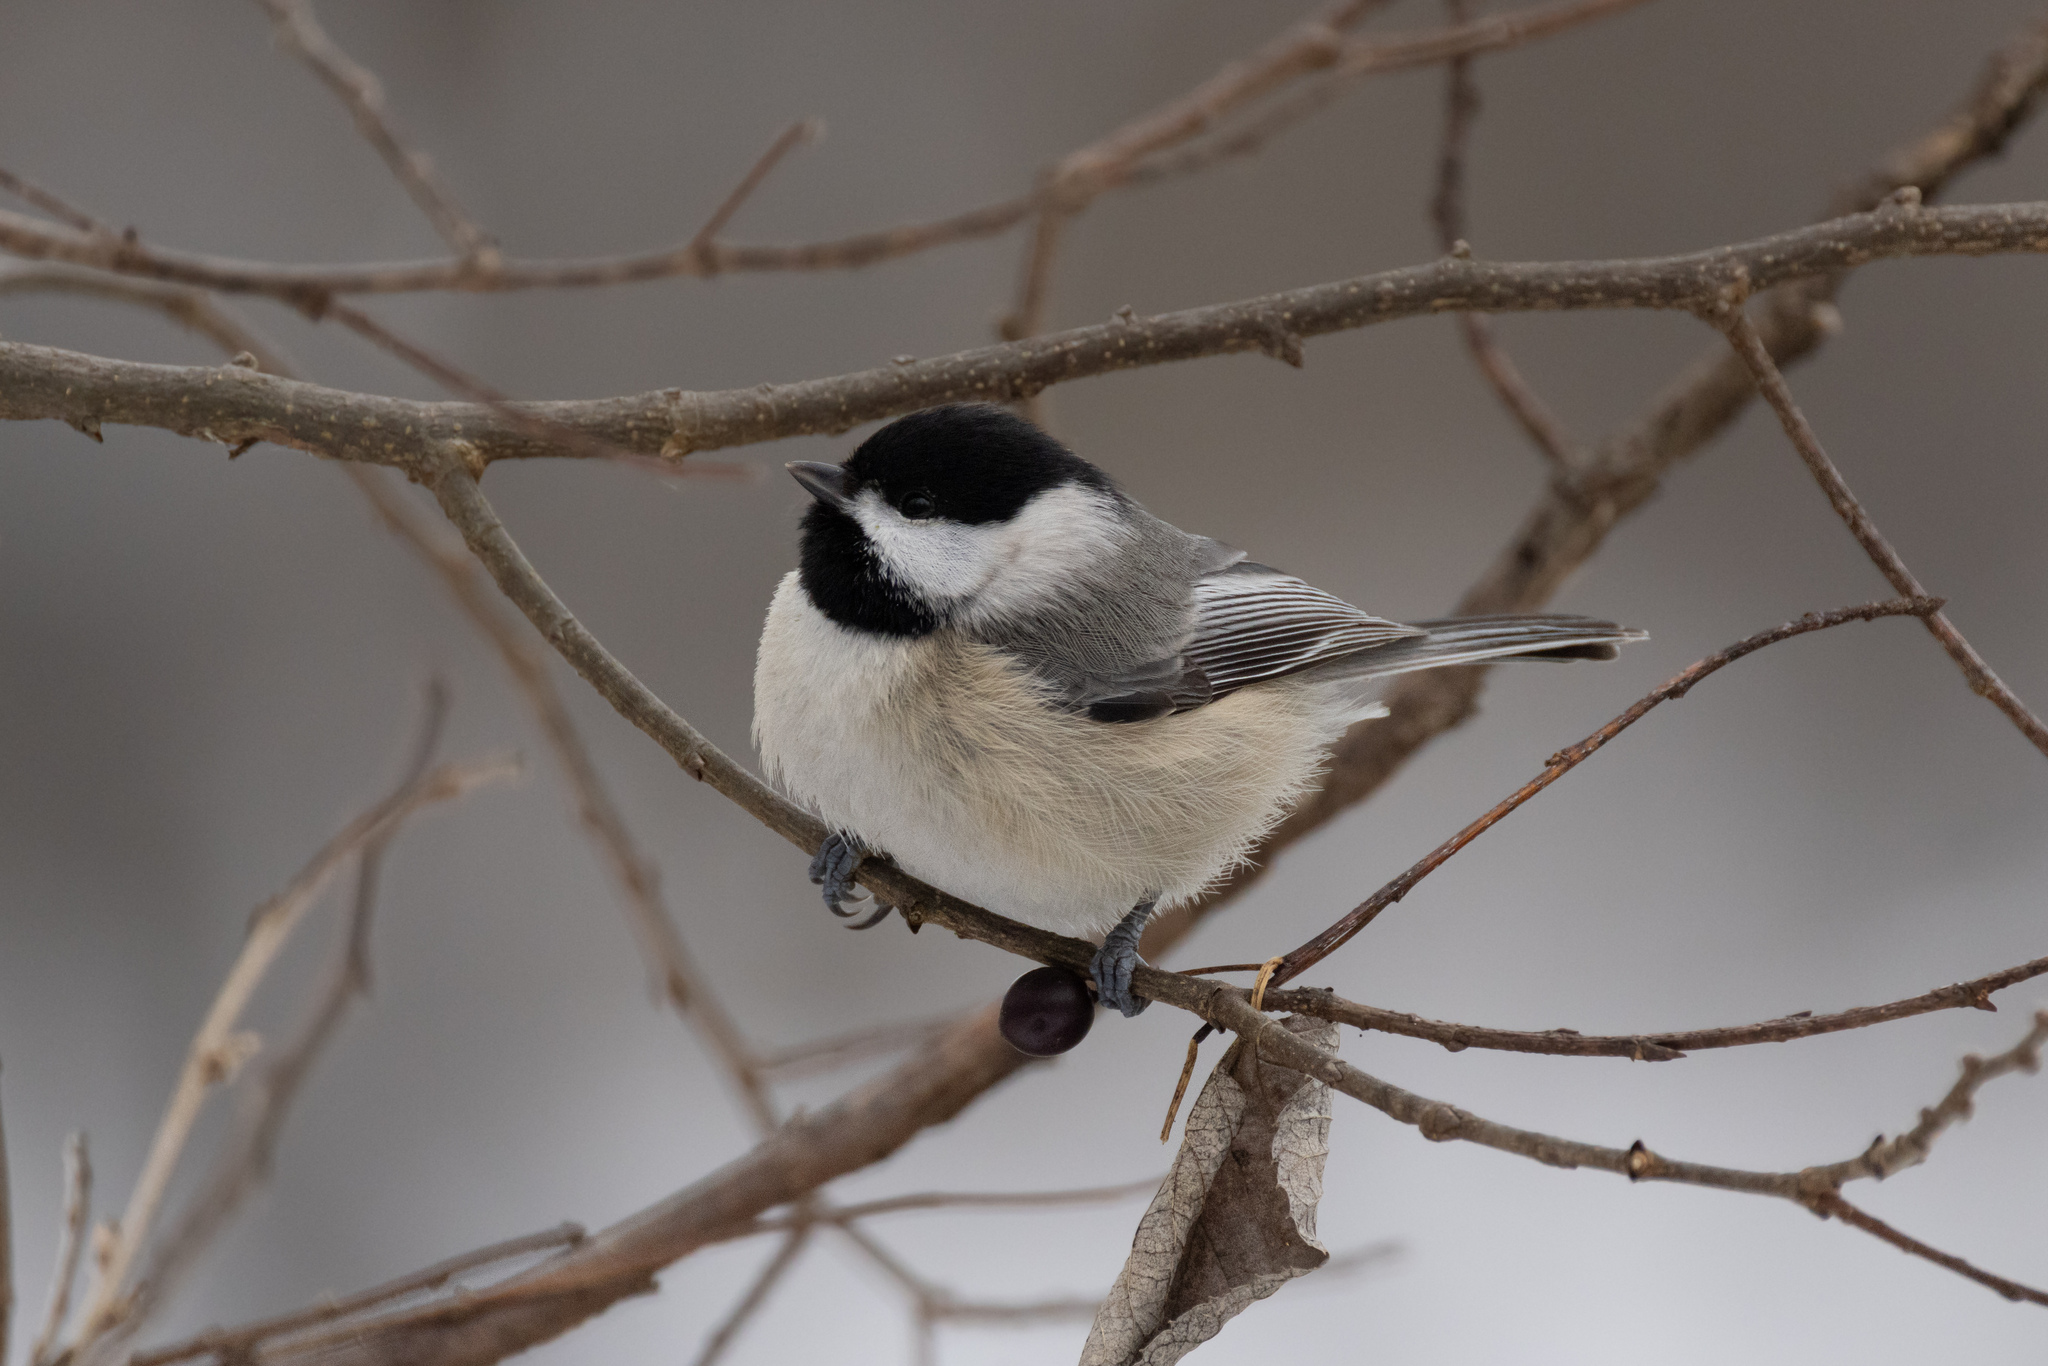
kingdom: Animalia
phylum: Chordata
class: Aves
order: Passeriformes
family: Paridae
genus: Poecile
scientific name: Poecile carolinensis
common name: Carolina chickadee
